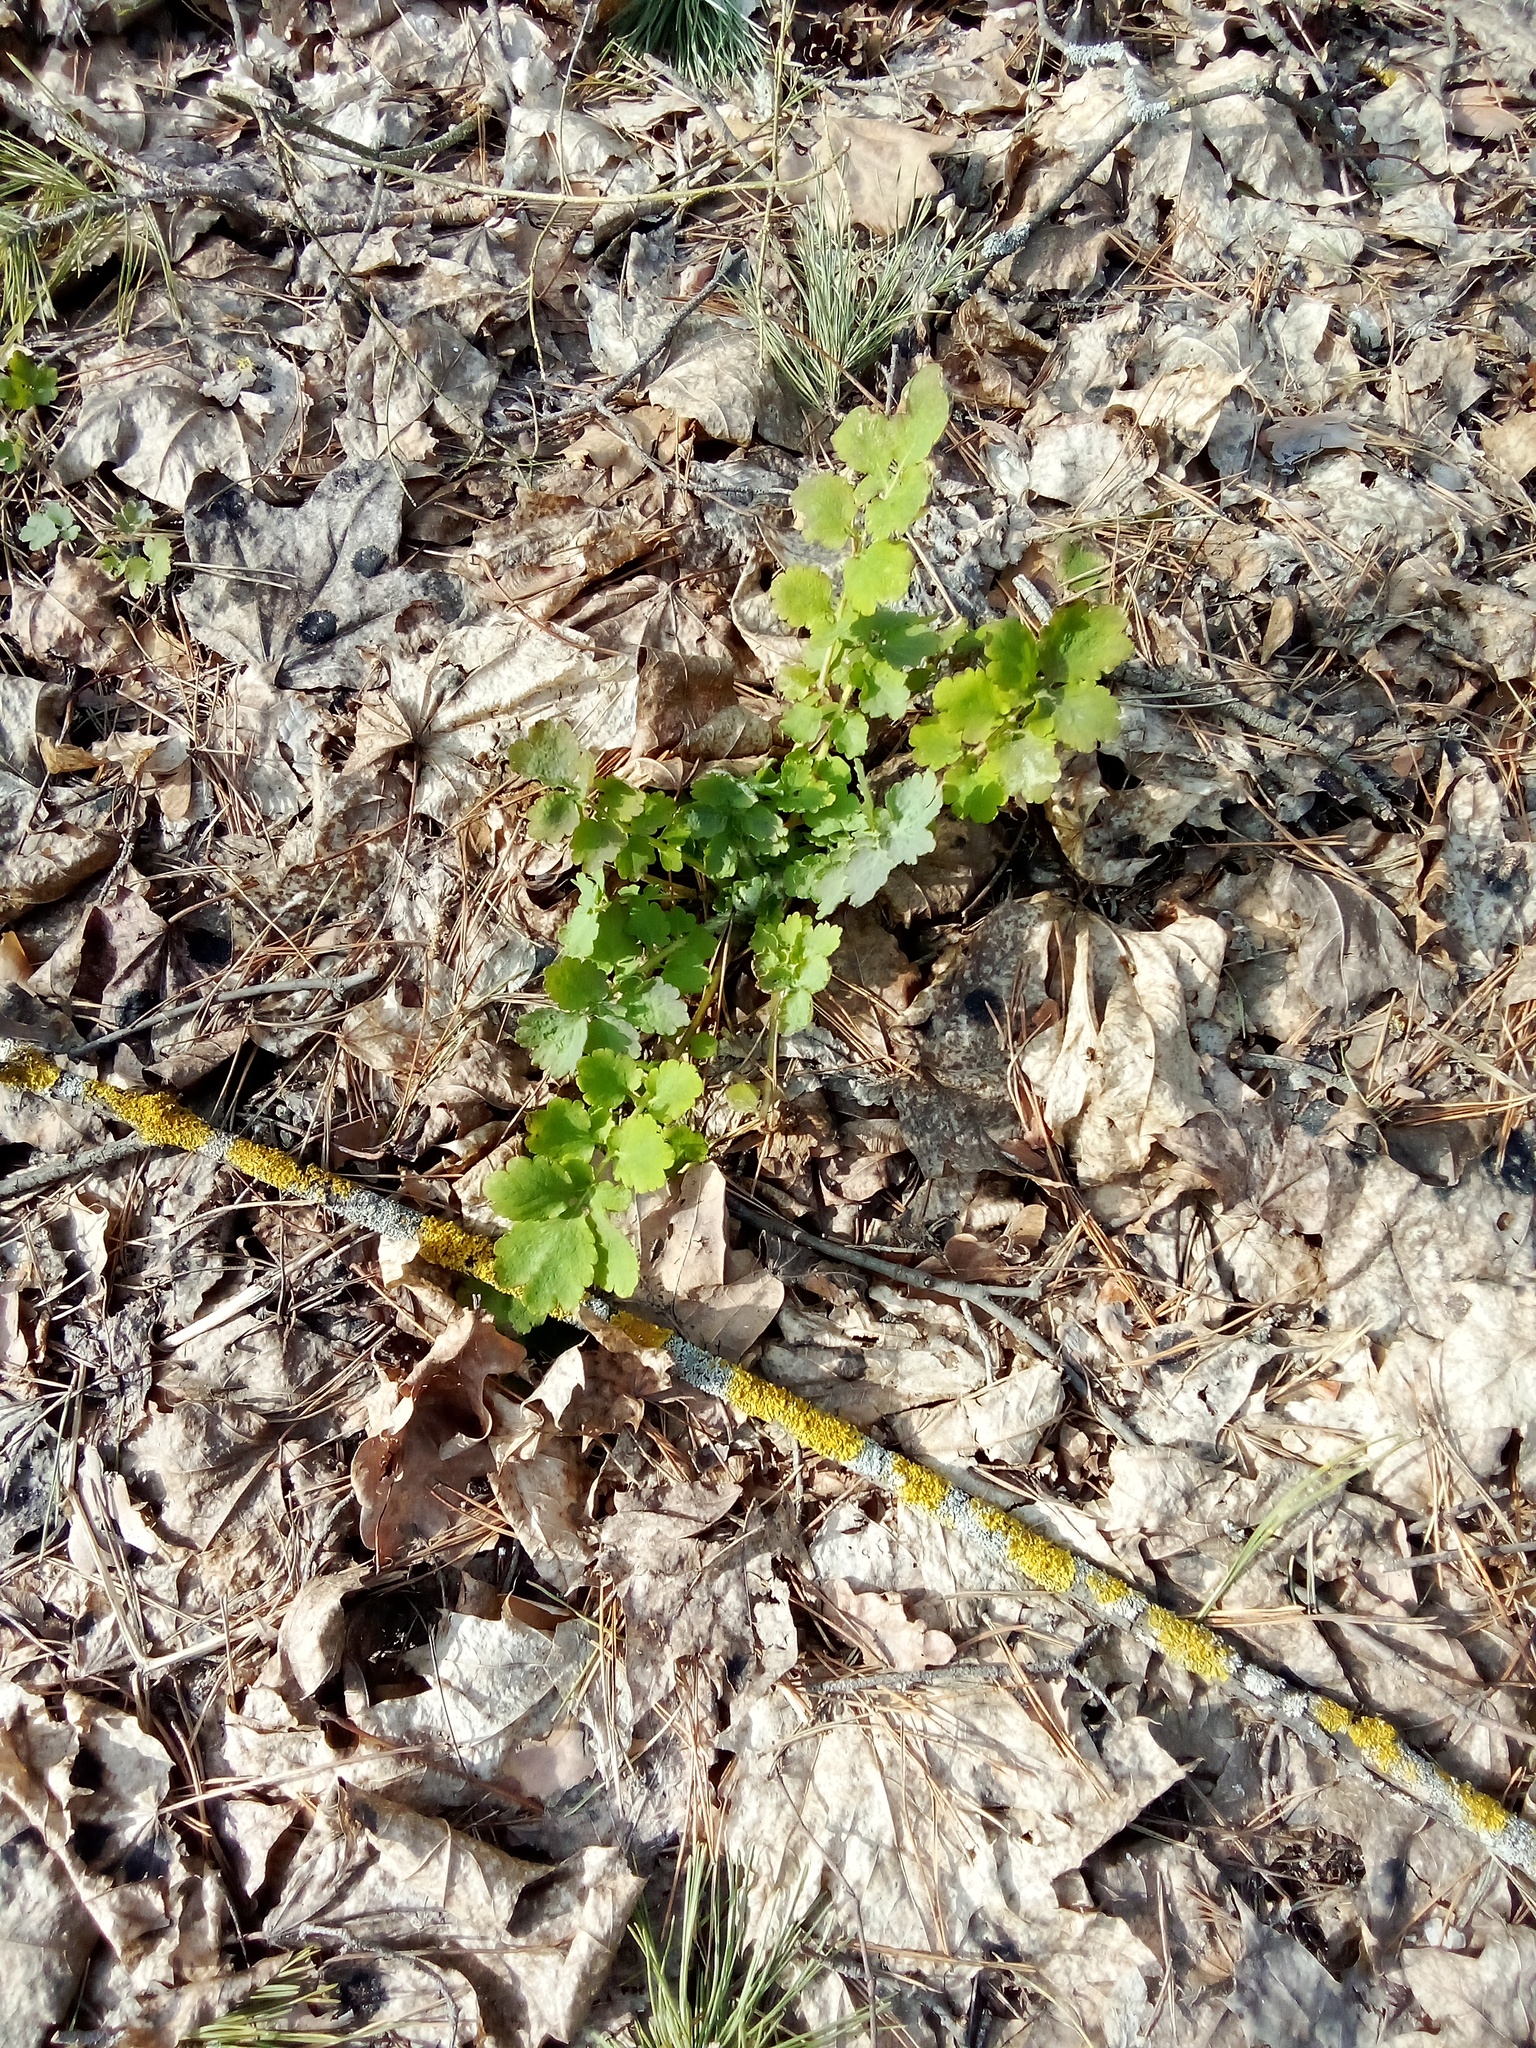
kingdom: Plantae
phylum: Tracheophyta
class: Magnoliopsida
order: Ranunculales
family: Papaveraceae
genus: Chelidonium
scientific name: Chelidonium majus
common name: Greater celandine
